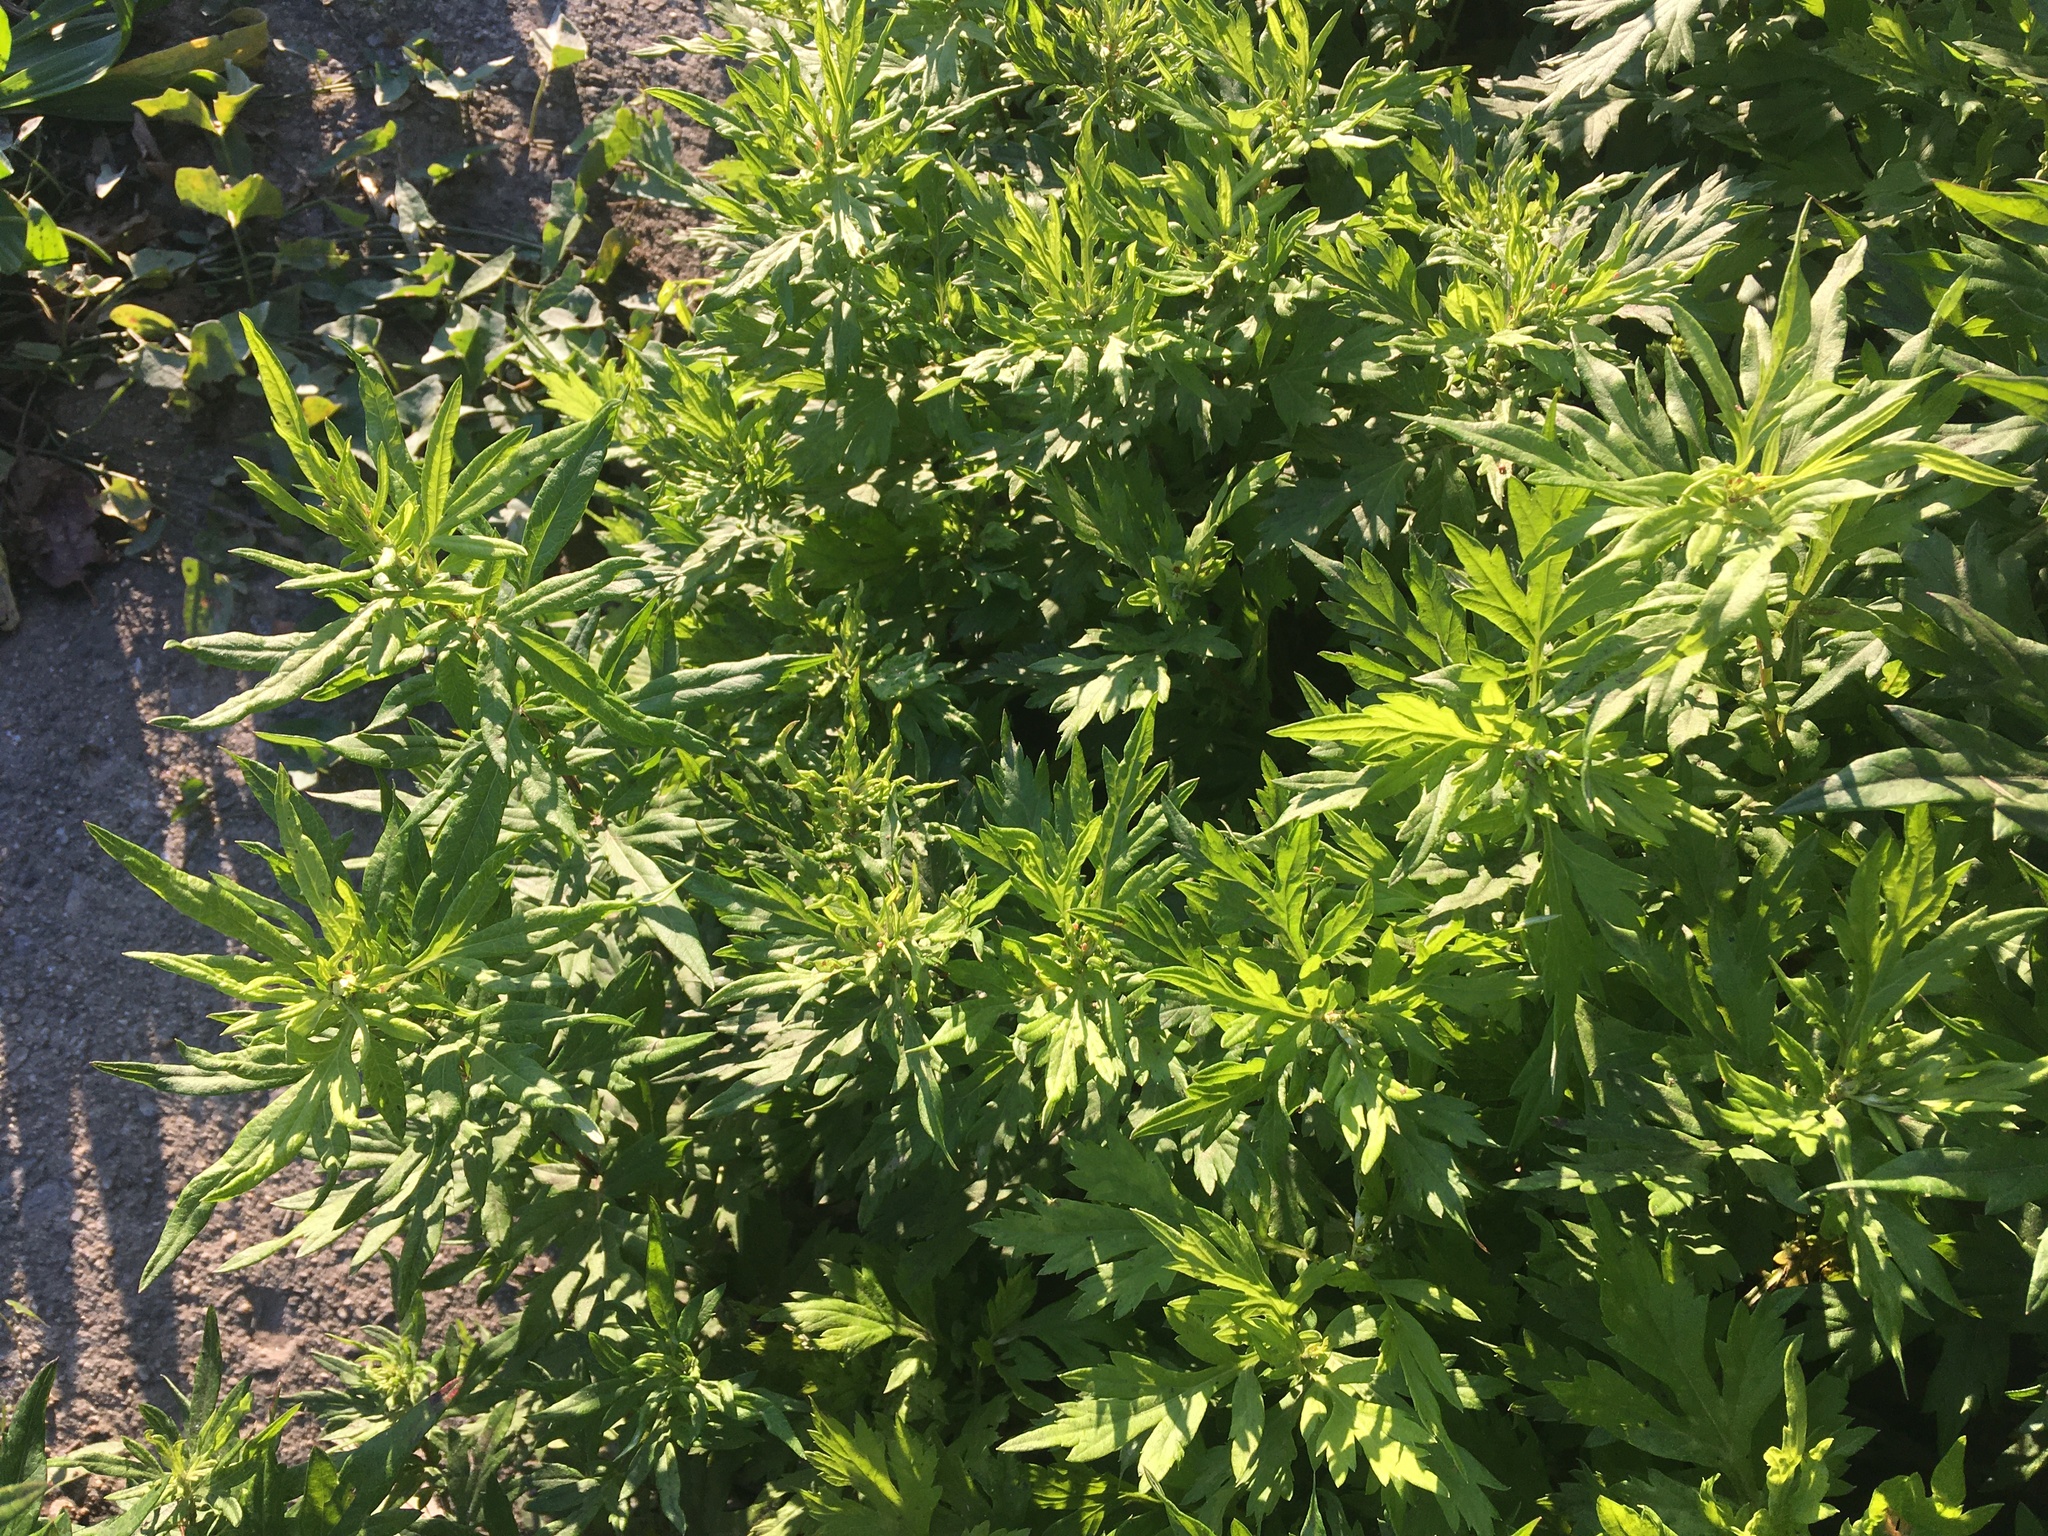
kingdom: Plantae
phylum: Tracheophyta
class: Magnoliopsida
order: Asterales
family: Asteraceae
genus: Artemisia
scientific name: Artemisia vulgaris
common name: Mugwort
